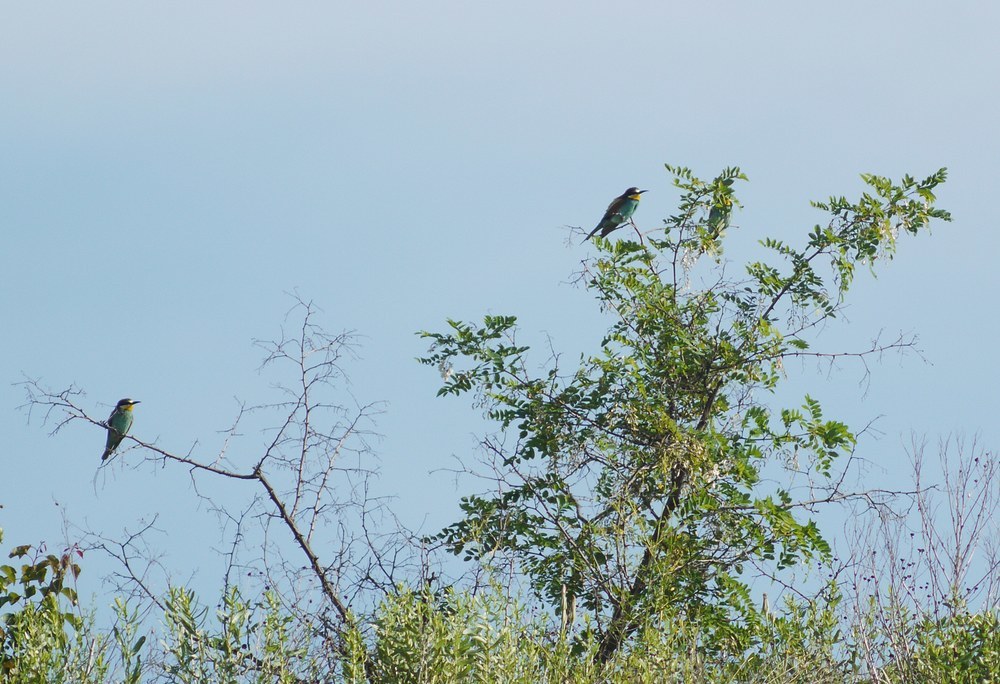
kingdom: Animalia
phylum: Chordata
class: Aves
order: Coraciiformes
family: Meropidae
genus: Merops
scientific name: Merops apiaster
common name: European bee-eater
